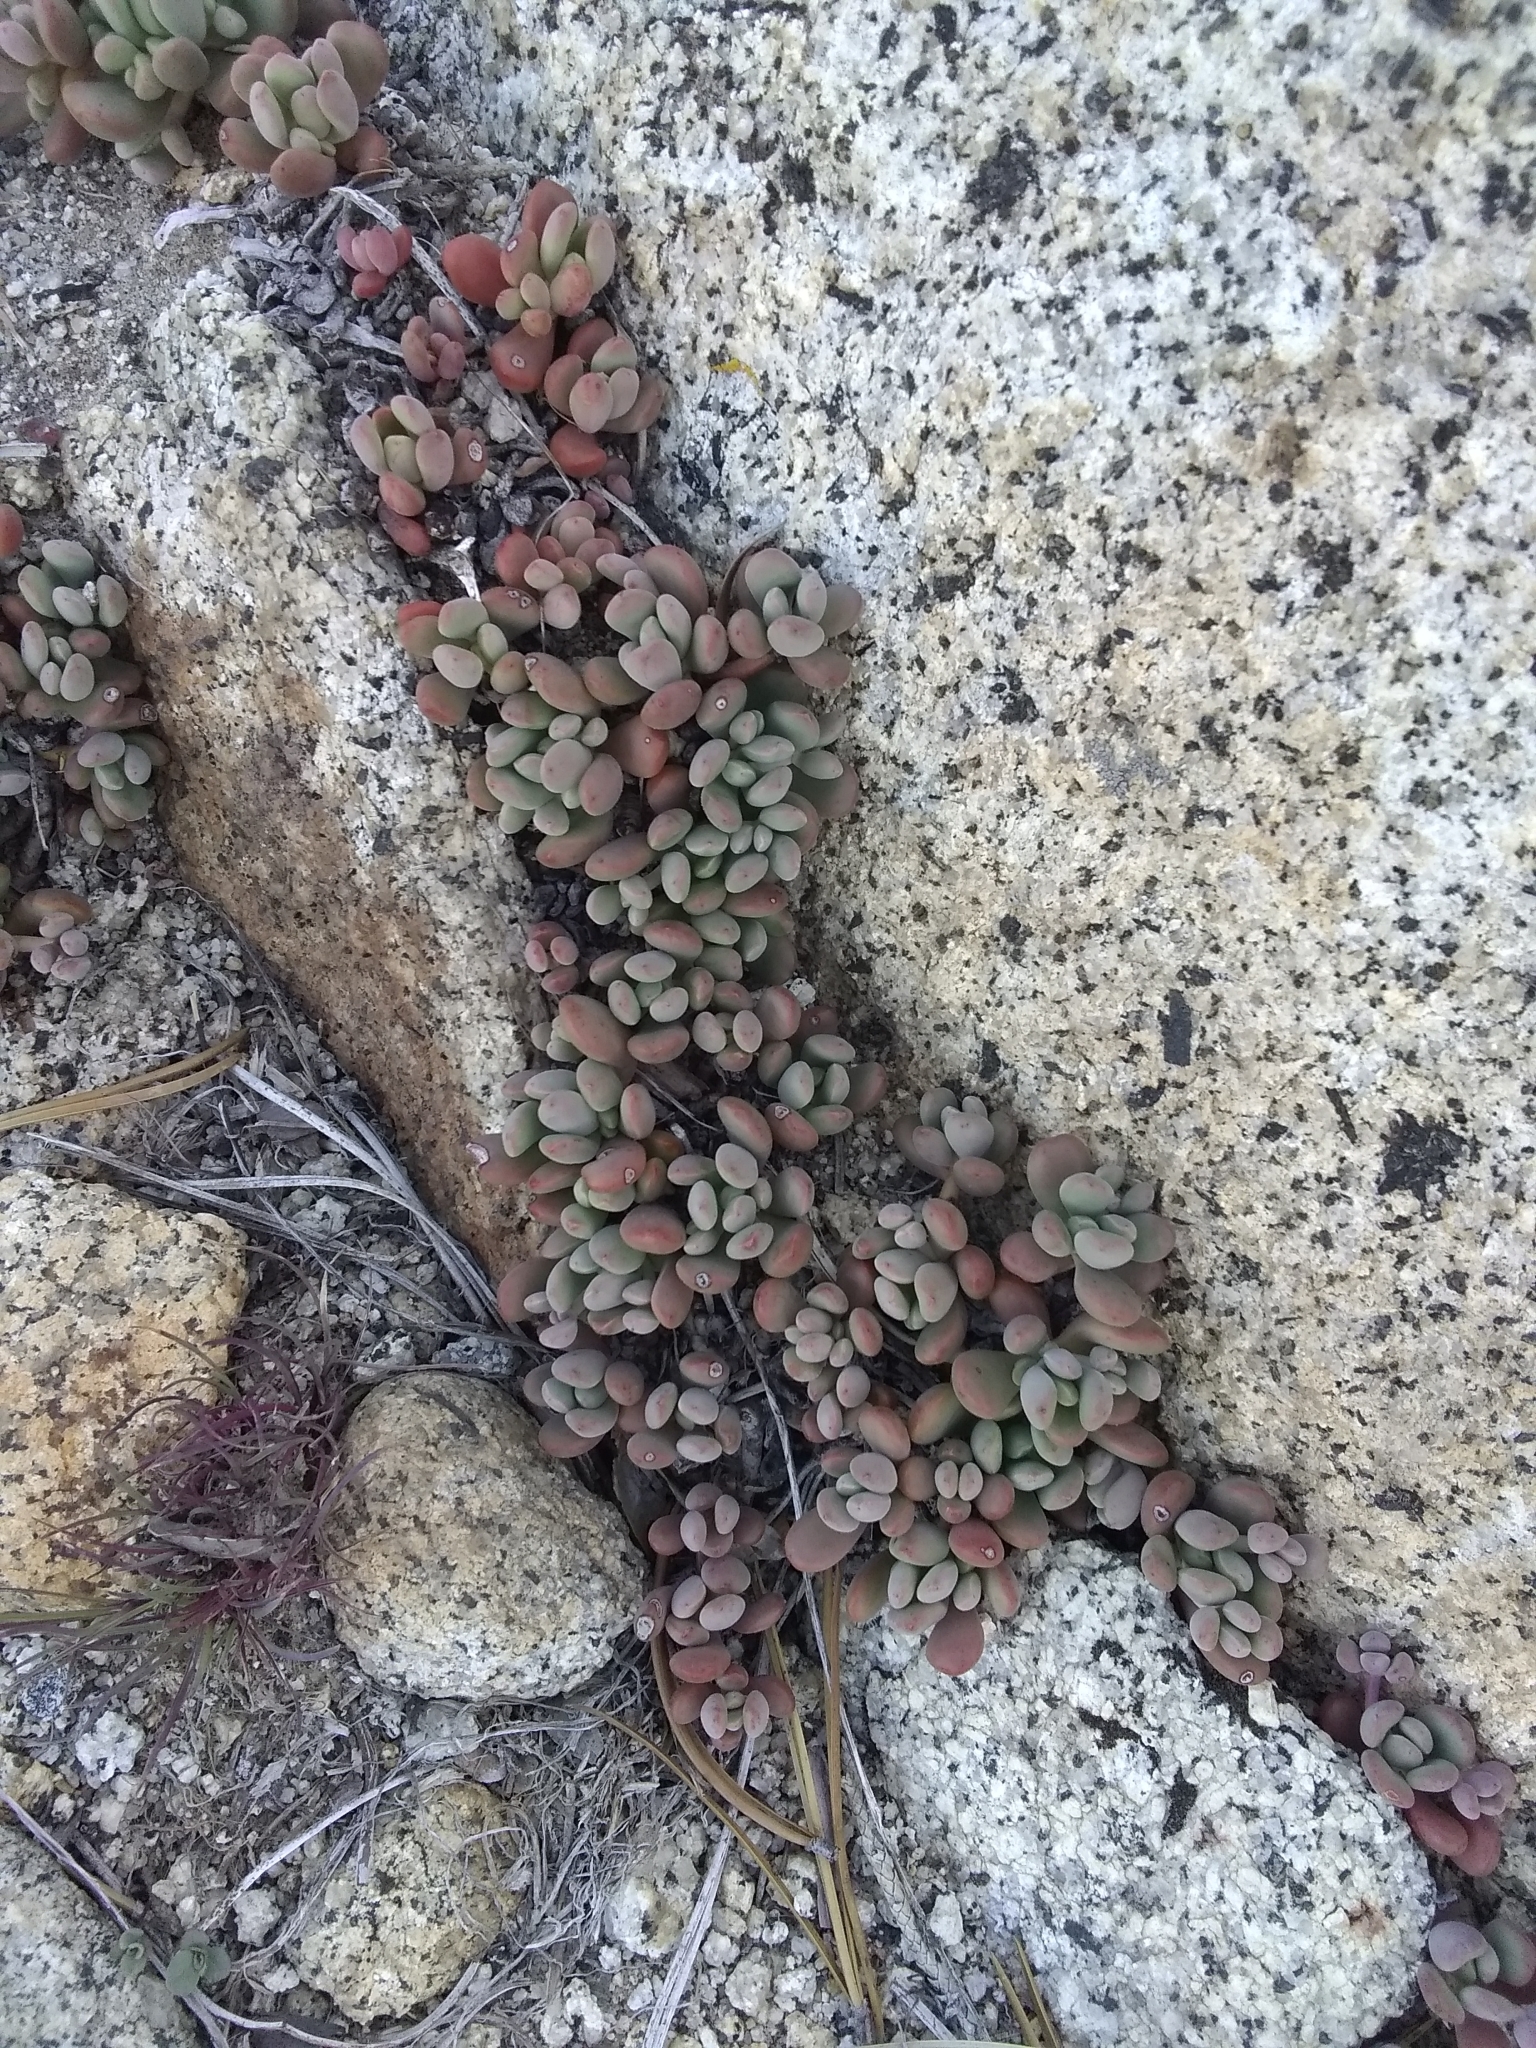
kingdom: Plantae
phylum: Tracheophyta
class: Magnoliopsida
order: Saxifragales
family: Crassulaceae
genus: Sedum
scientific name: Sedum obtusatum
